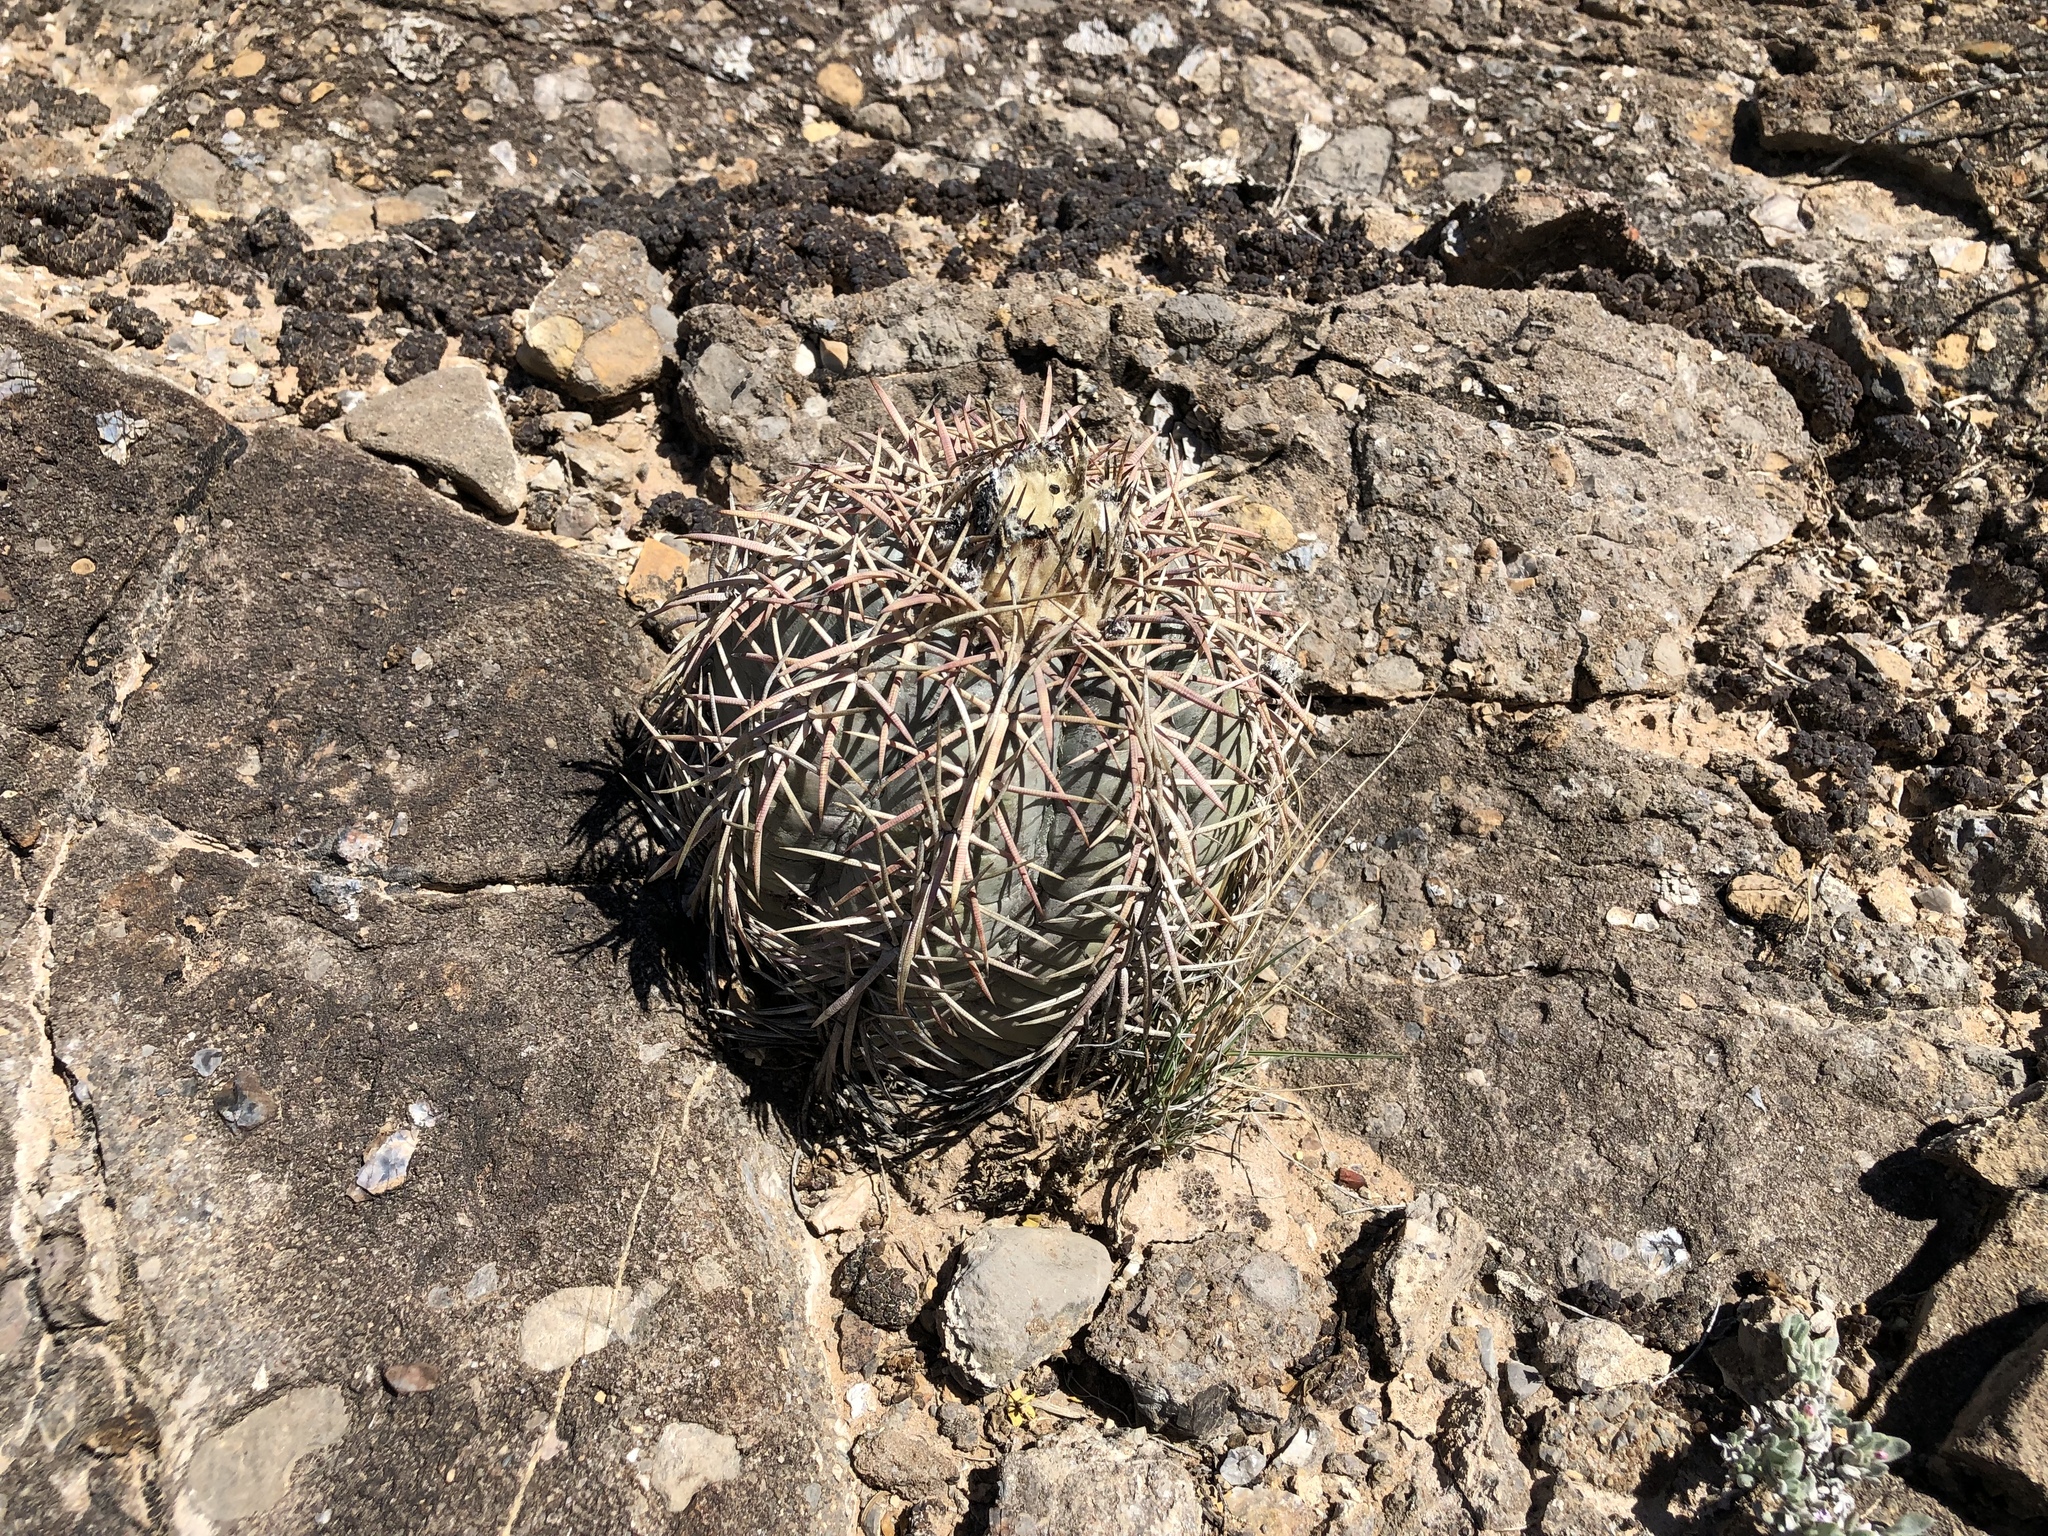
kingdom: Plantae
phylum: Tracheophyta
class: Magnoliopsida
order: Caryophyllales
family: Cactaceae
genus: Echinocactus
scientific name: Echinocactus horizonthalonius
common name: Devilshead
